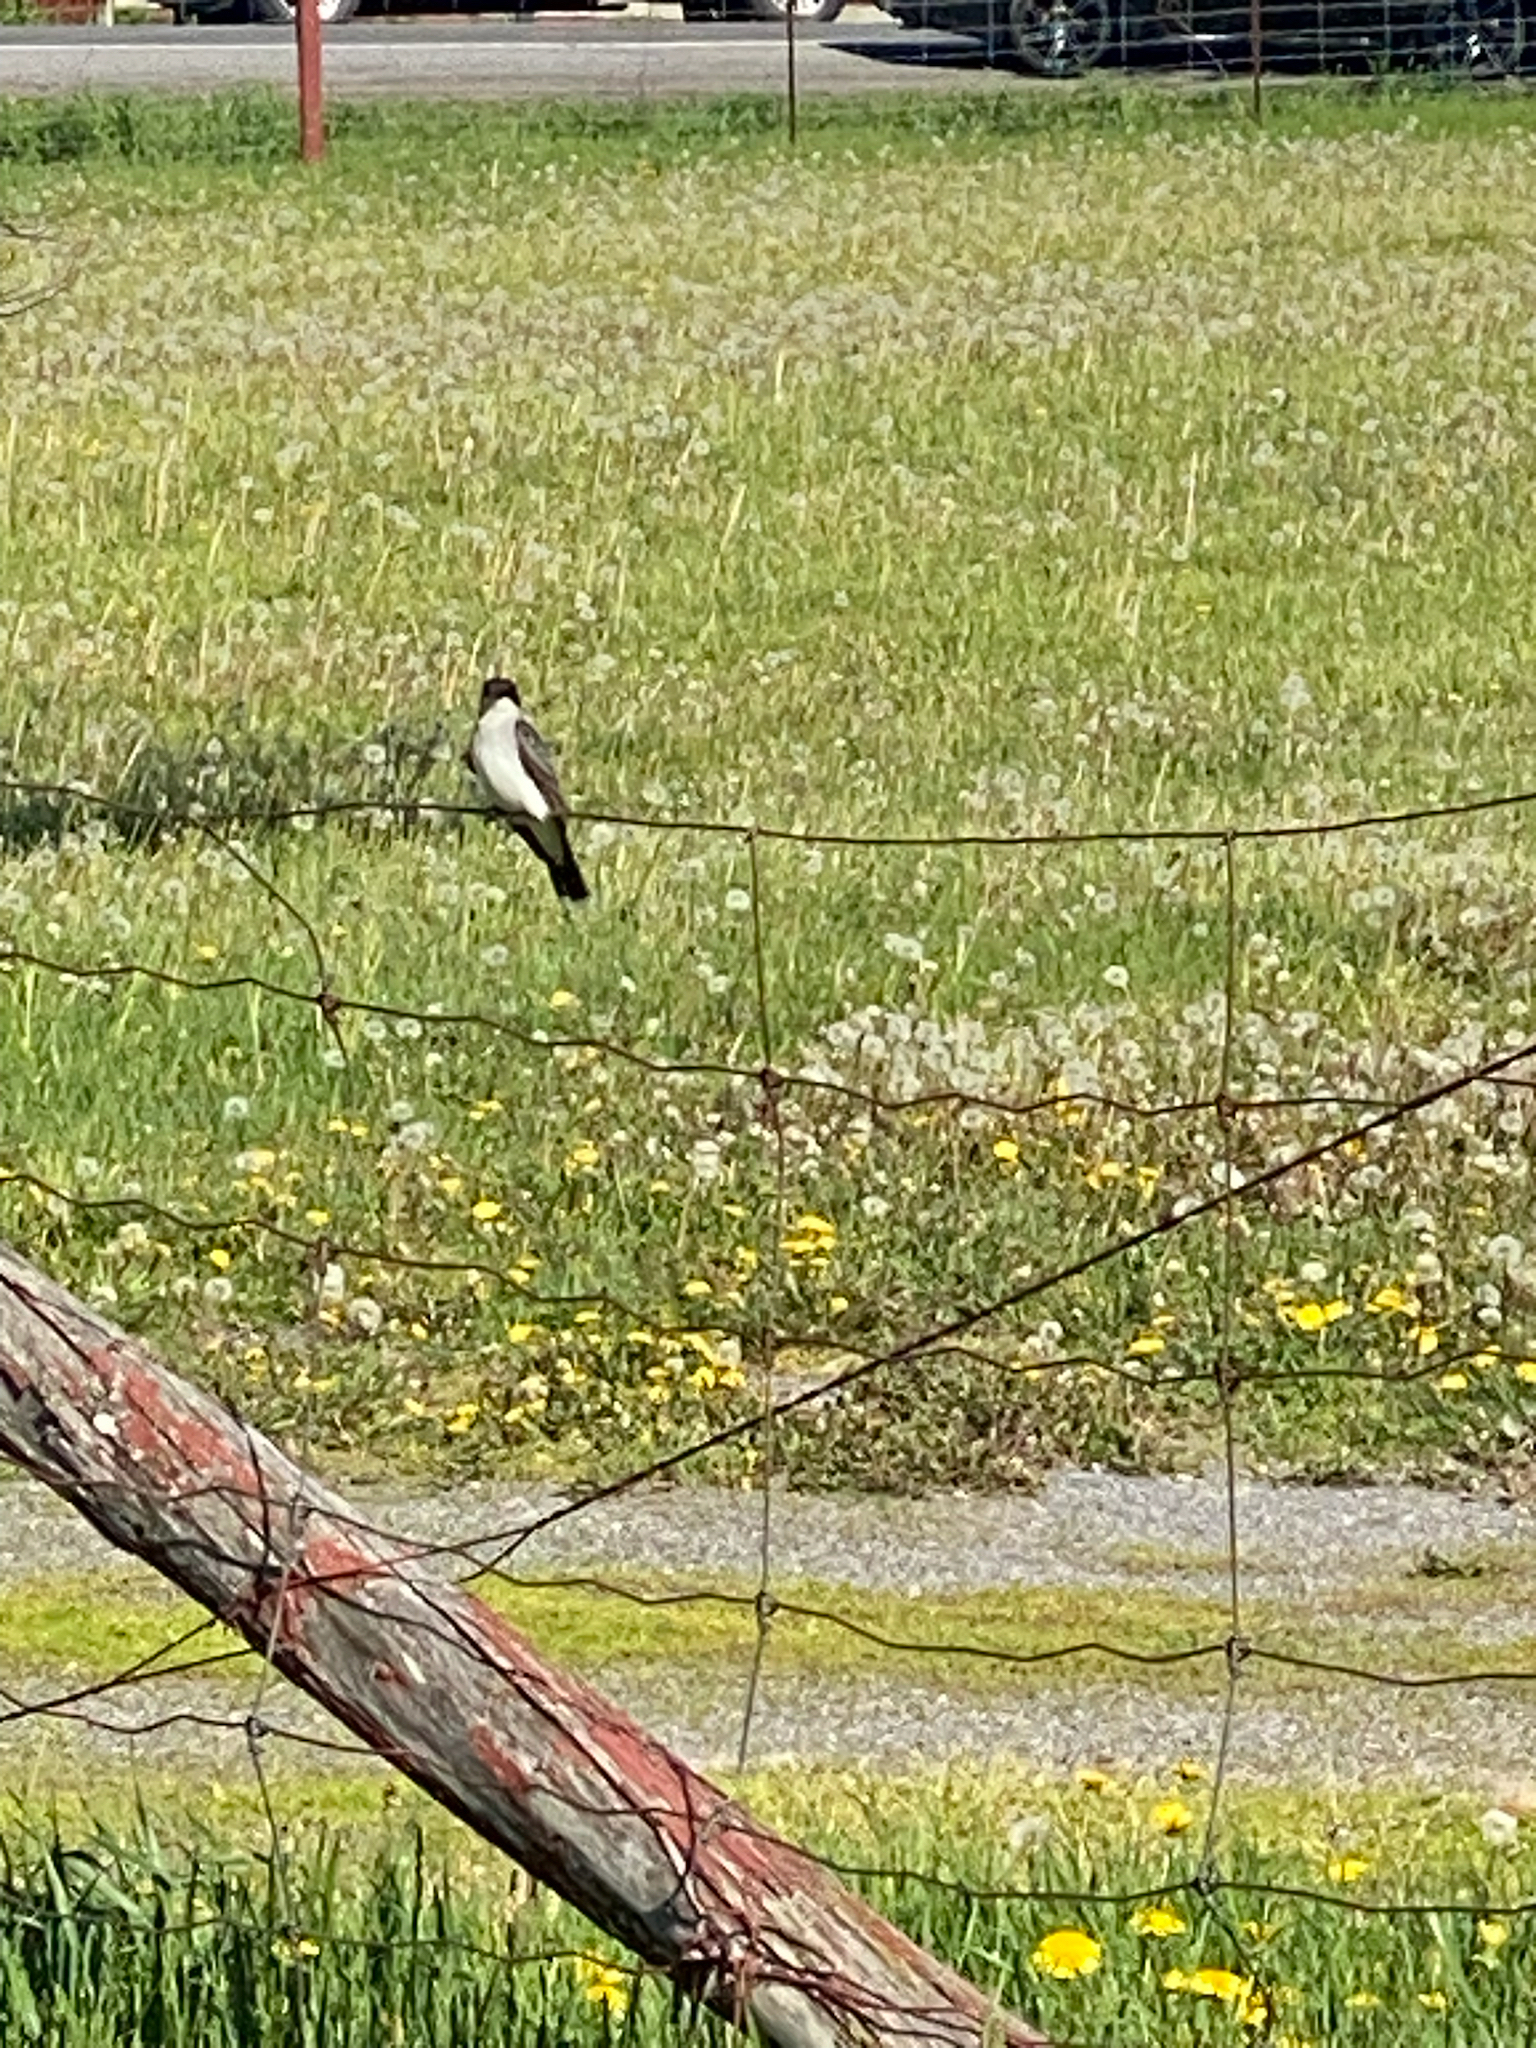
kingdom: Animalia
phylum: Chordata
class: Aves
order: Passeriformes
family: Tyrannidae
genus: Tyrannus
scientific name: Tyrannus tyrannus
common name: Eastern kingbird
